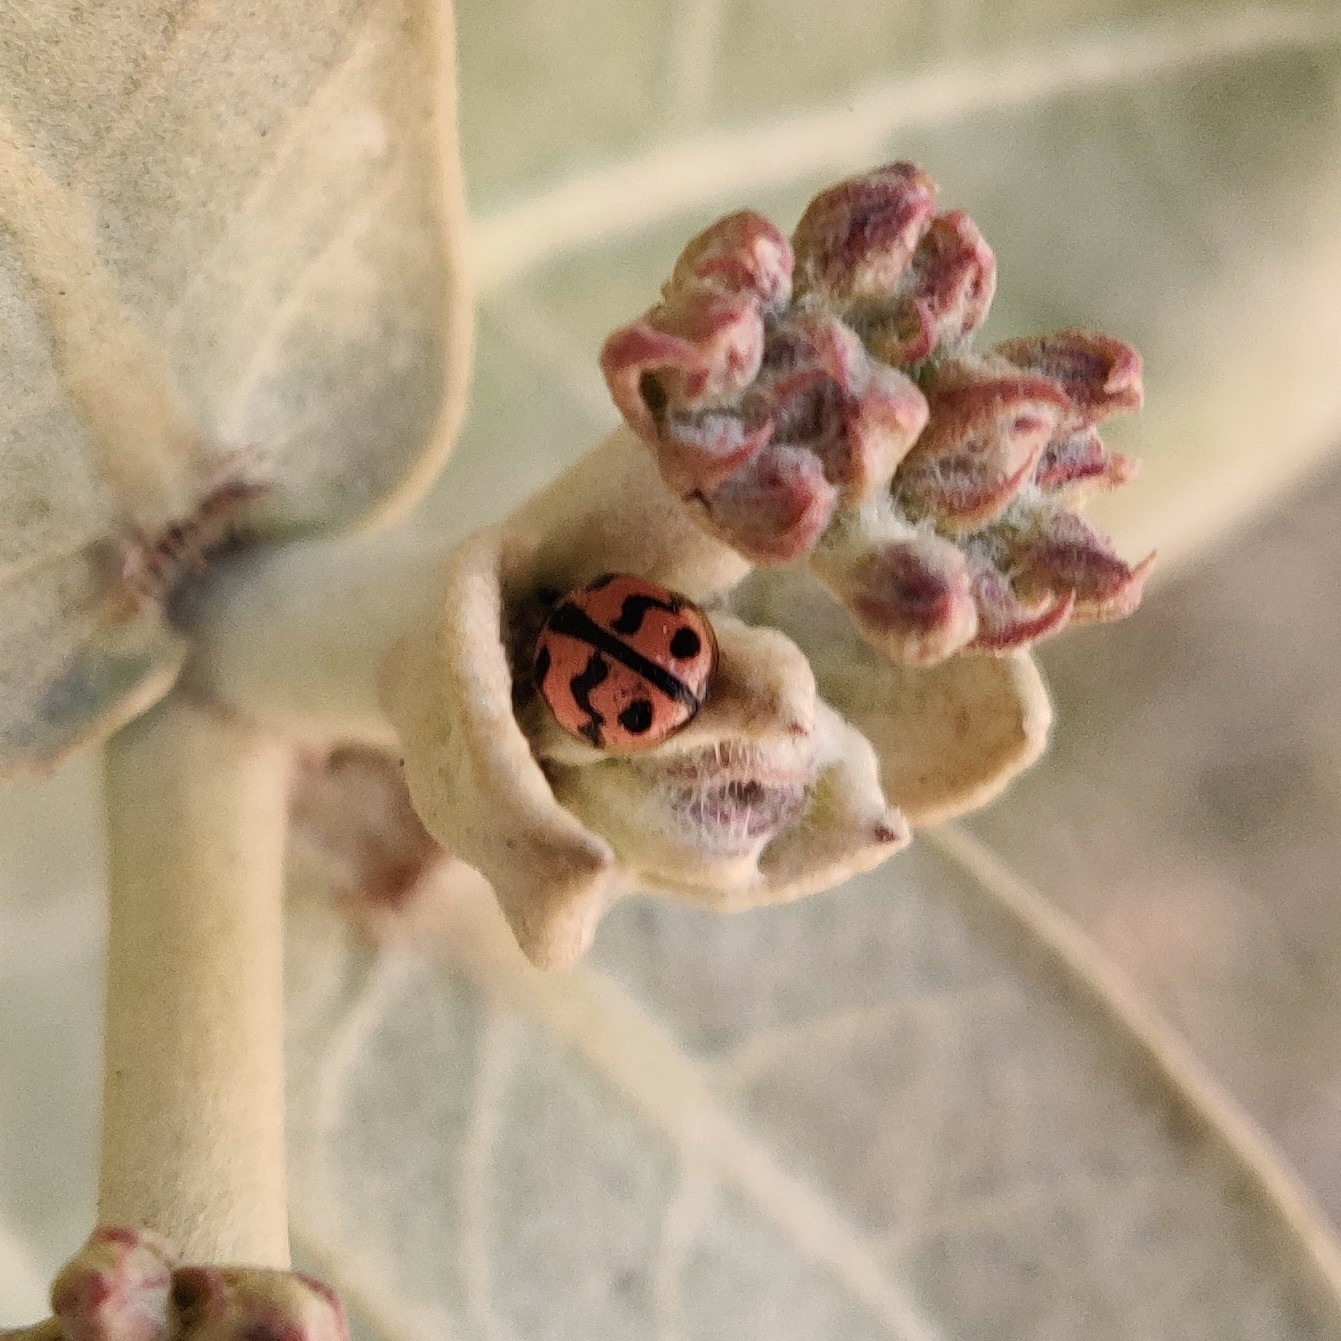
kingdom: Animalia
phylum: Arthropoda
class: Insecta
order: Coleoptera
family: Coccinellidae
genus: Cheilomenes
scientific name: Cheilomenes sexmaculata
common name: Ladybird beetle
